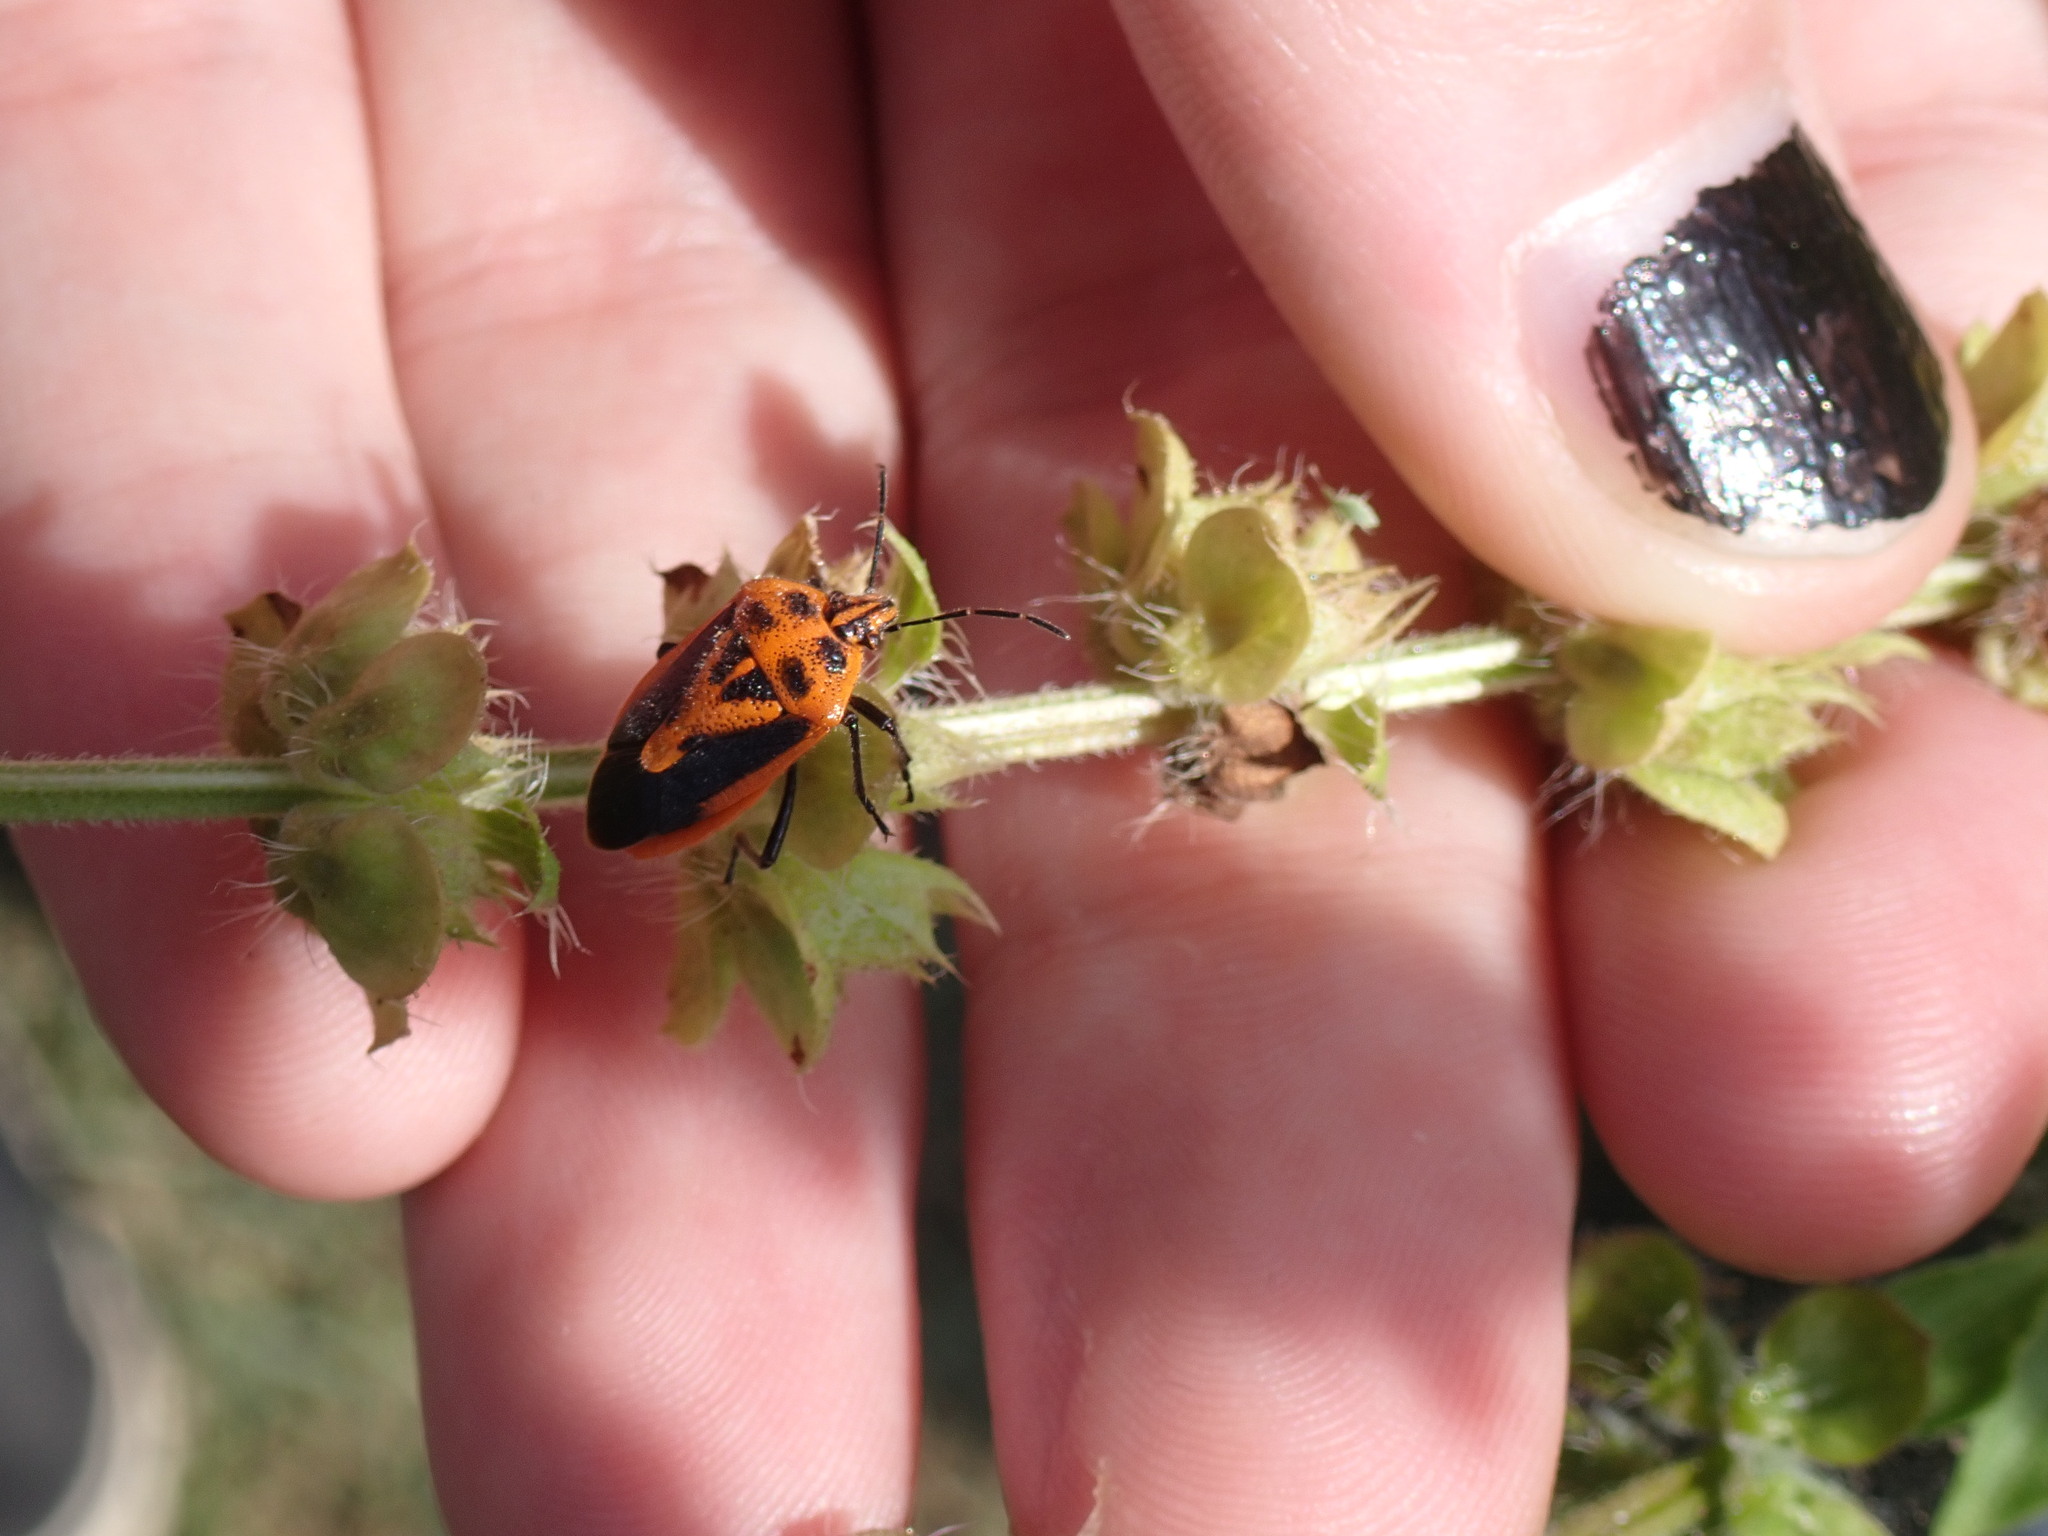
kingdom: Animalia
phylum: Arthropoda
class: Insecta
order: Hemiptera
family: Pentatomidae
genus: Agonoscelis
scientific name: Agonoscelis rutila
